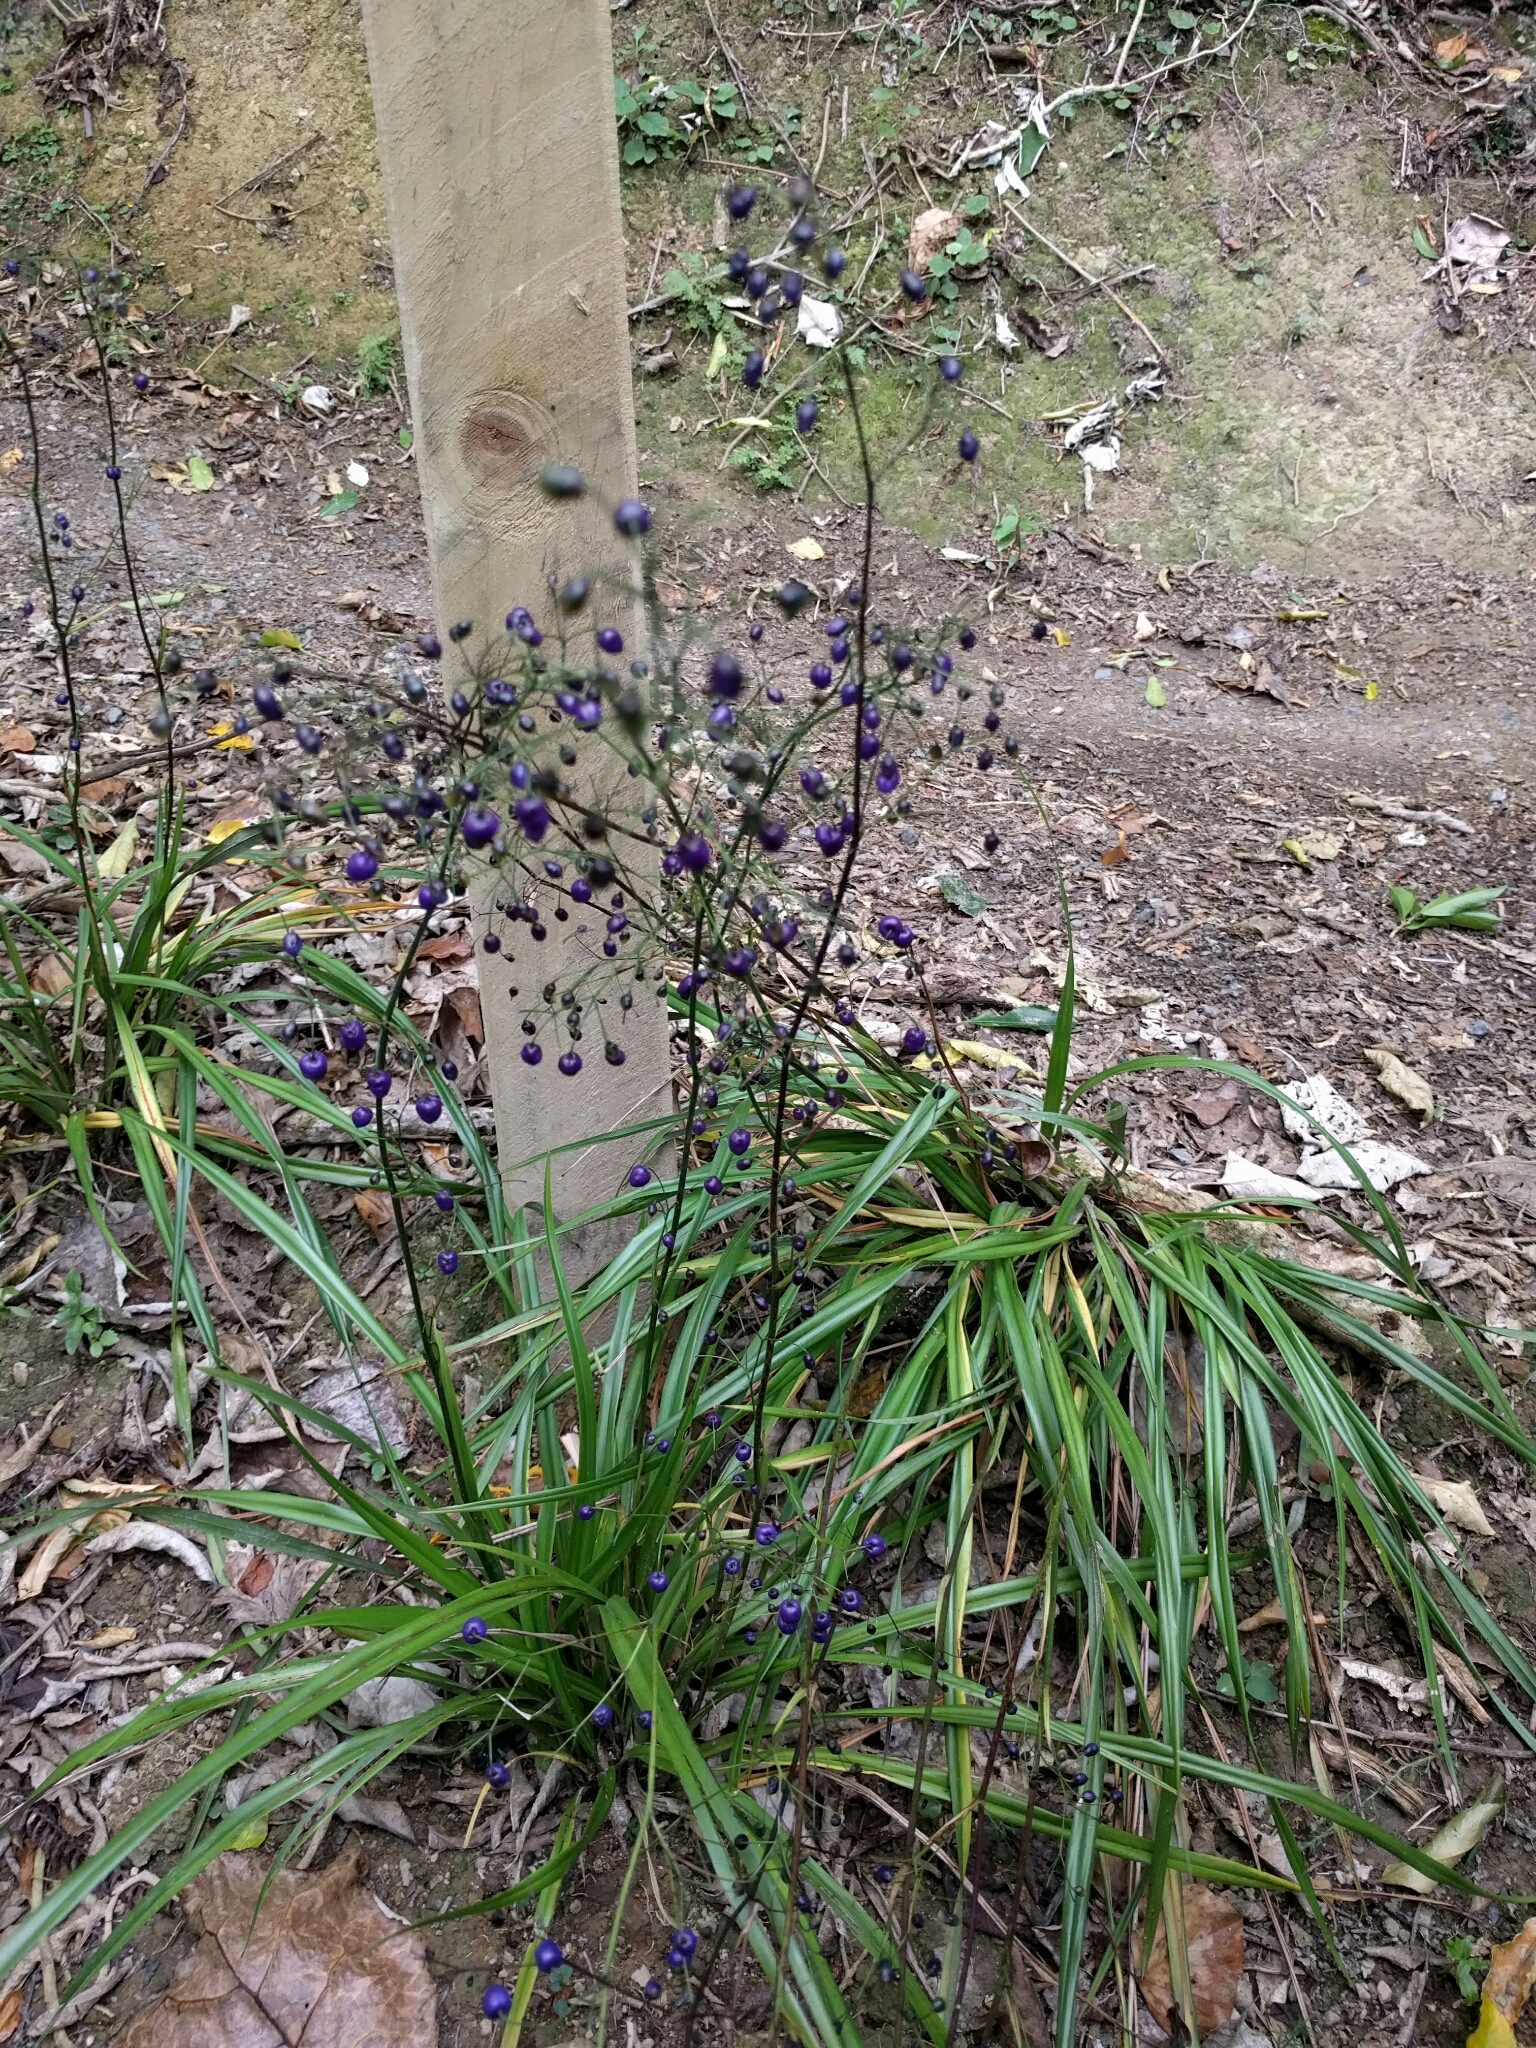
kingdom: Plantae
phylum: Tracheophyta
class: Liliopsida
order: Asparagales
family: Asphodelaceae
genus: Dianella
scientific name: Dianella nigra
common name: New zealand-blueberry
